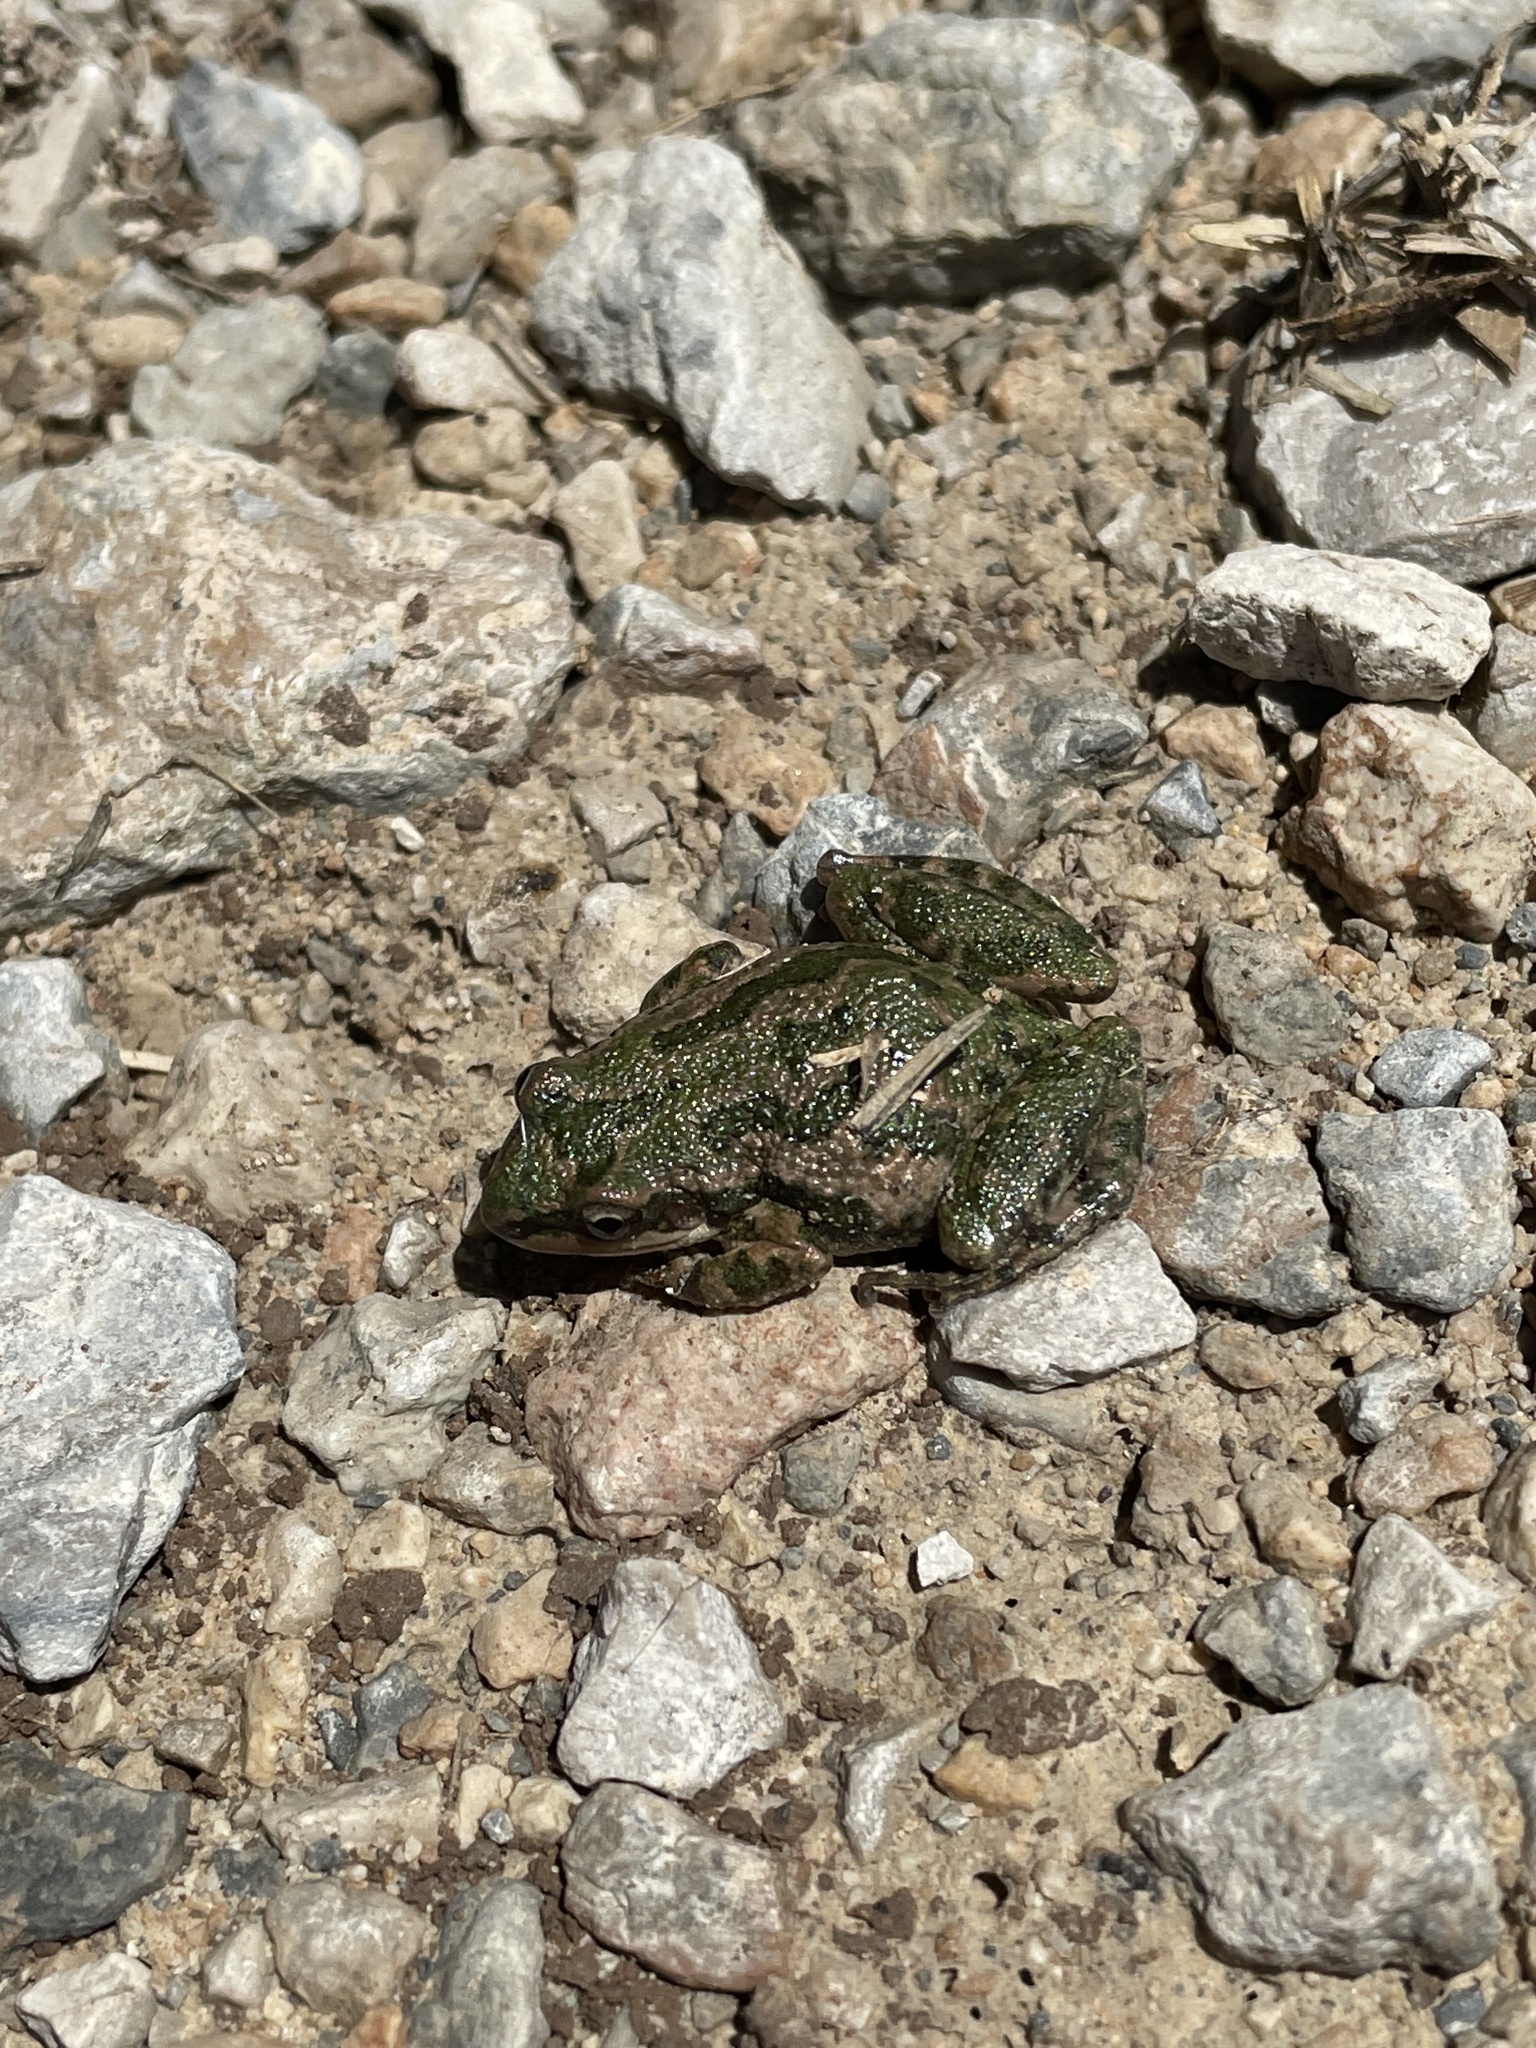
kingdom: Animalia
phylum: Chordata
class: Amphibia
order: Anura
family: Hylidae
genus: Pseudacris
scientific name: Pseudacris clarkii
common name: Spotted chorus frog
